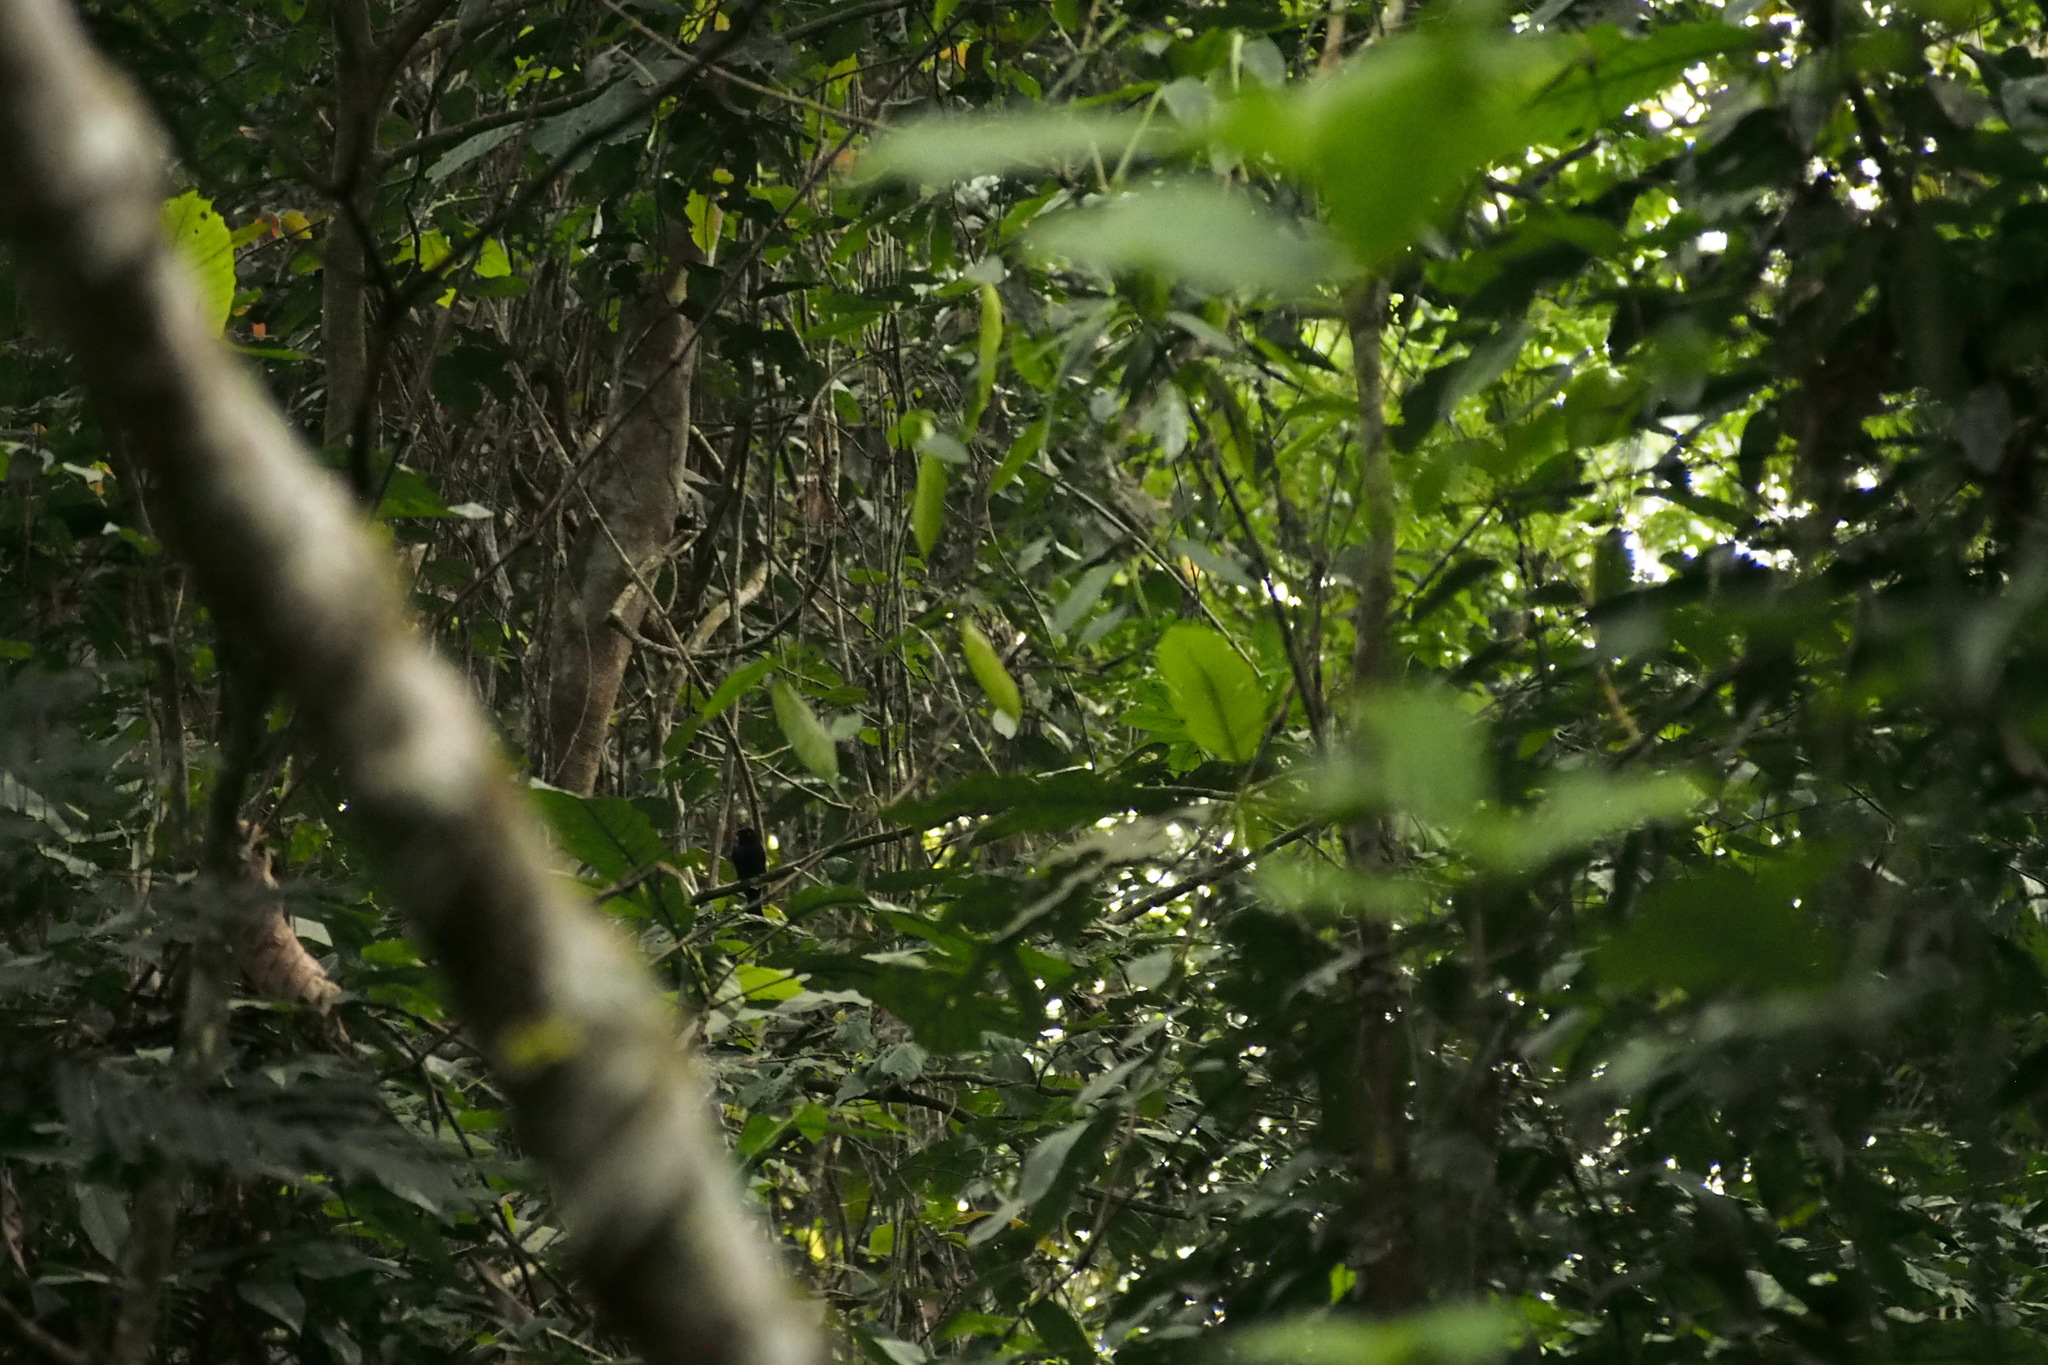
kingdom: Animalia
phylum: Chordata
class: Aves
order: Passeriformes
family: Dicruridae
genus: Dicrurus
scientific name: Dicrurus atripennis
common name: Shining drongo
